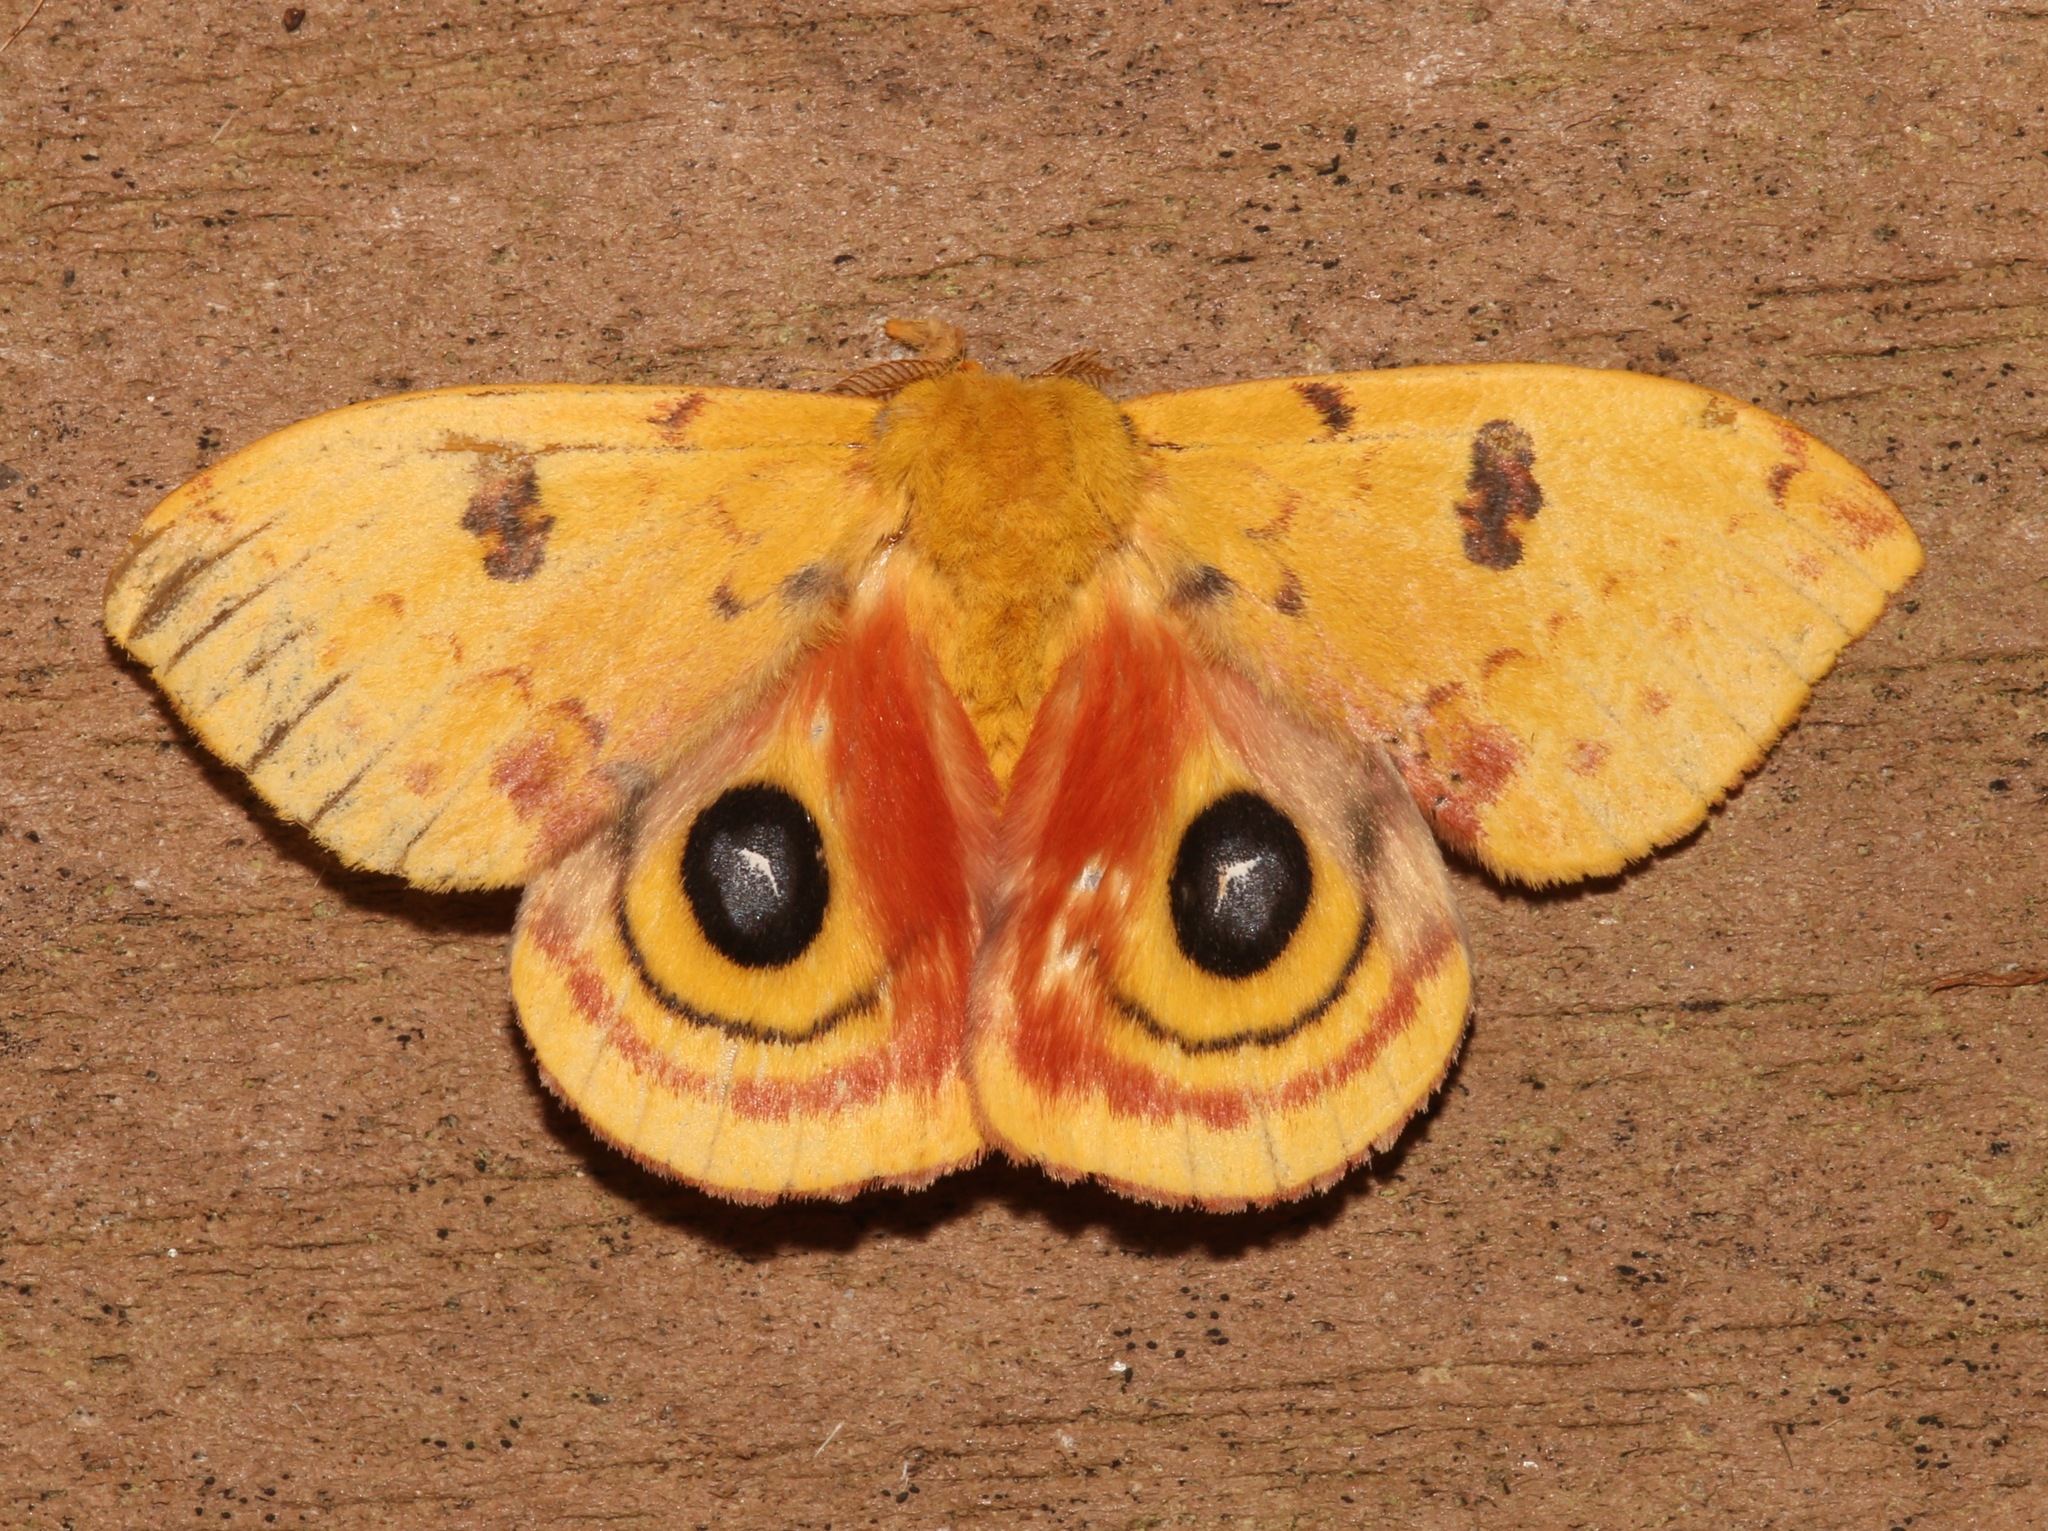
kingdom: Animalia
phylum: Arthropoda
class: Insecta
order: Lepidoptera
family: Saturniidae
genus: Automeris
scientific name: Automeris io
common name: Io moth
